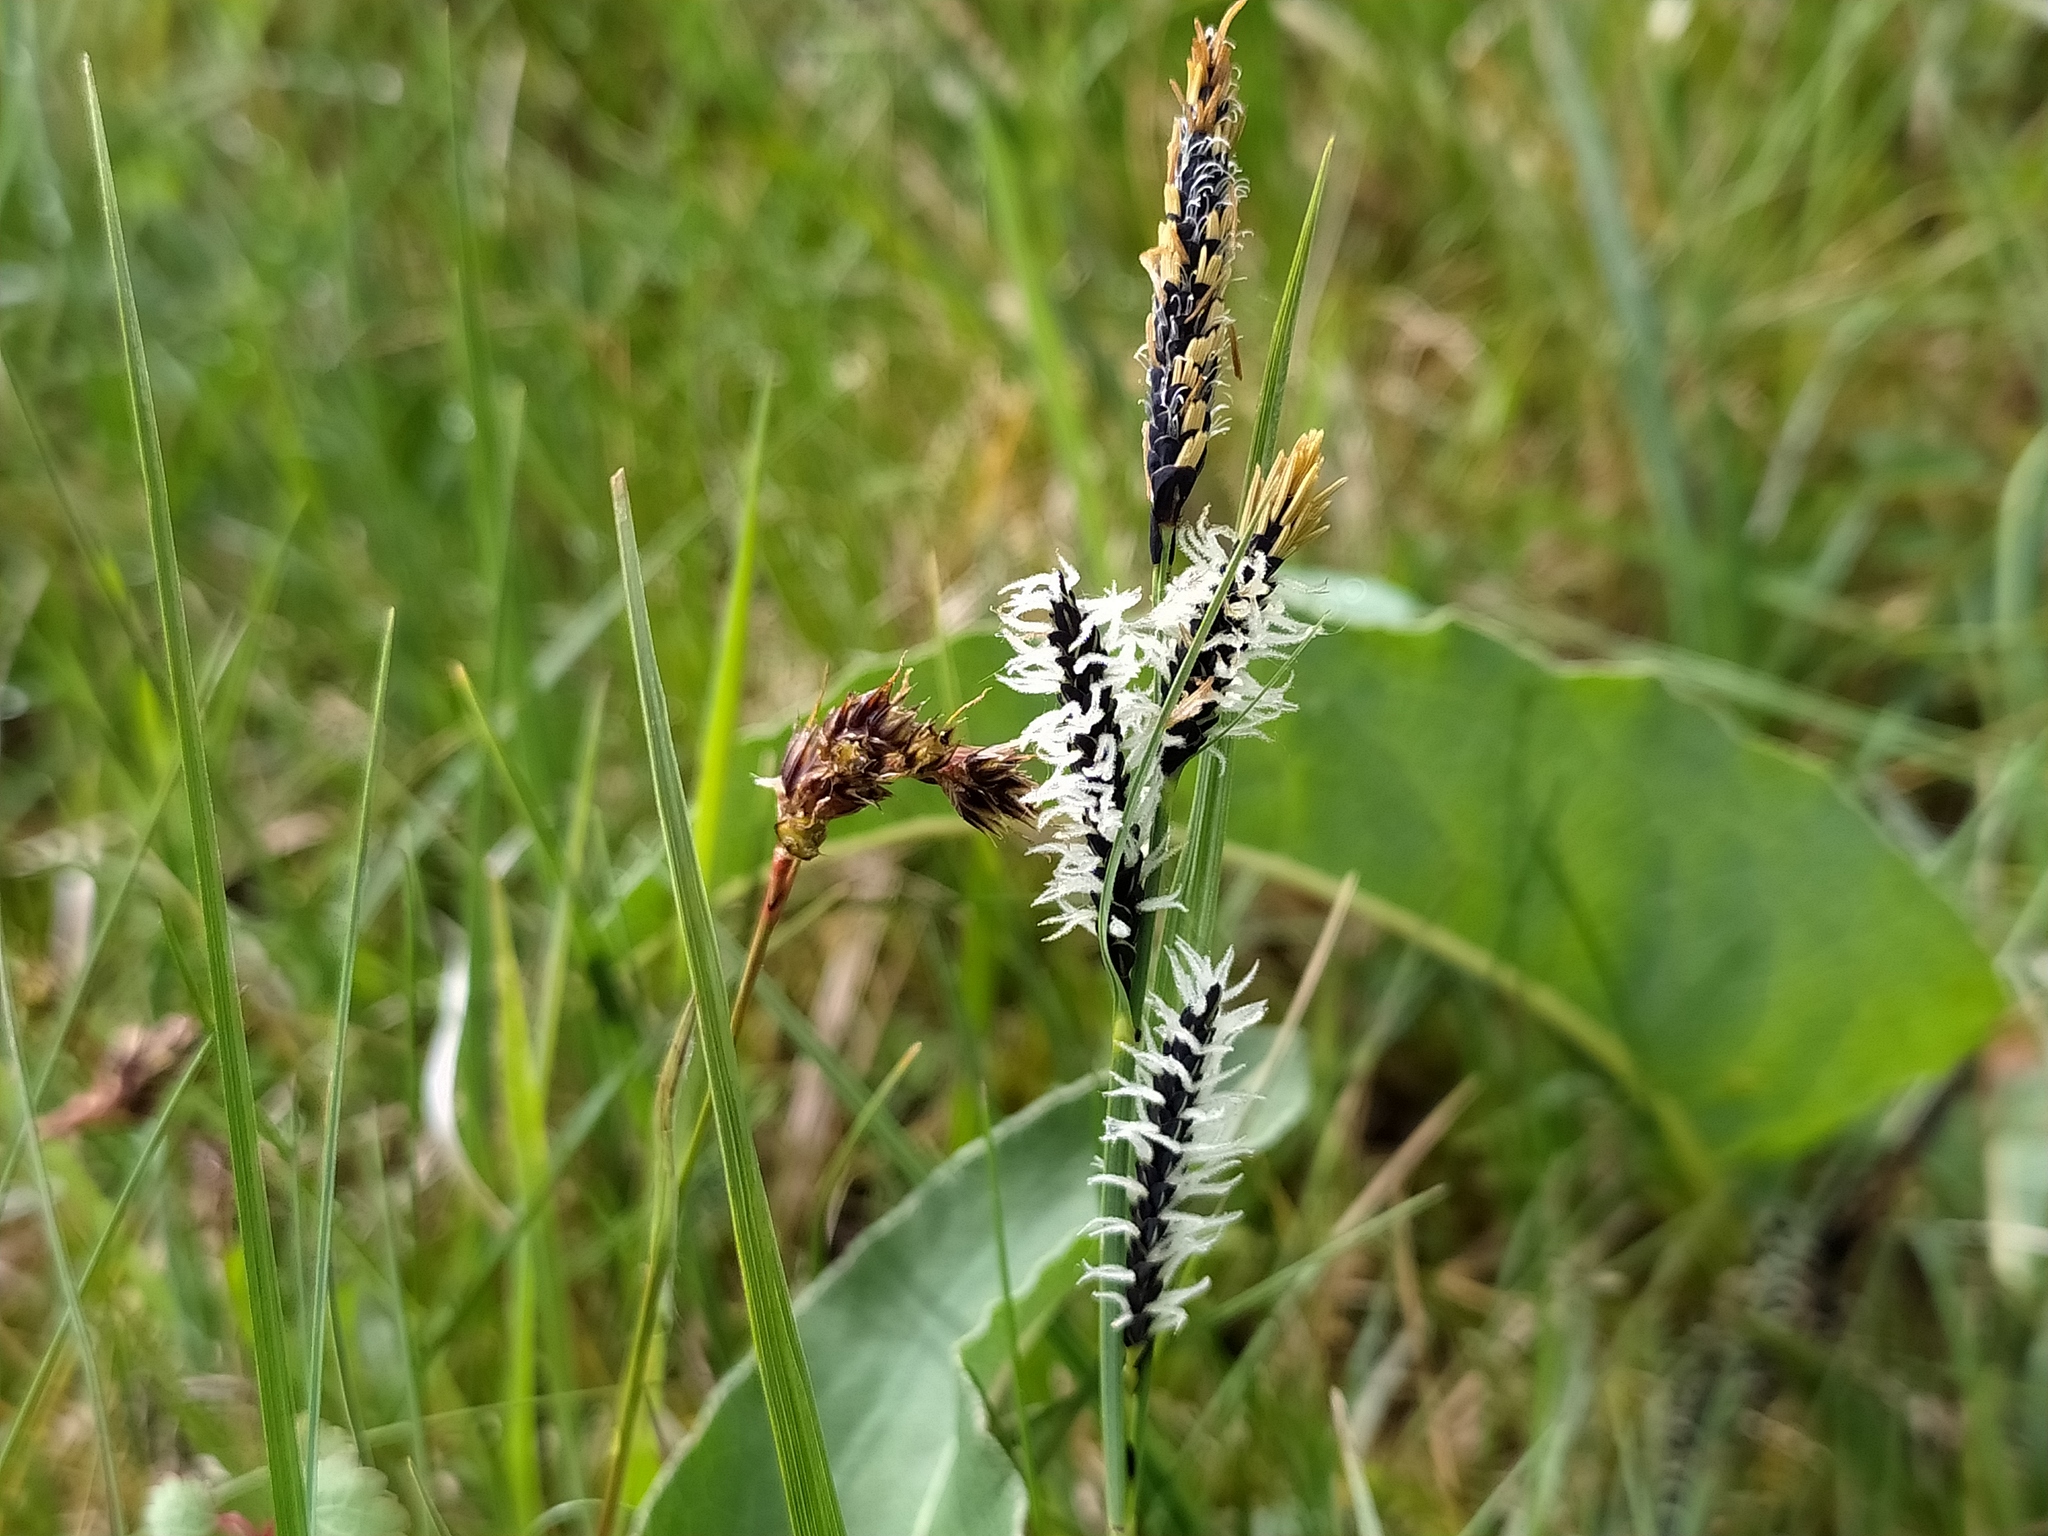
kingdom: Plantae
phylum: Tracheophyta
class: Liliopsida
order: Poales
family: Cyperaceae
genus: Carex
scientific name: Carex nigra
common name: Common sedge
